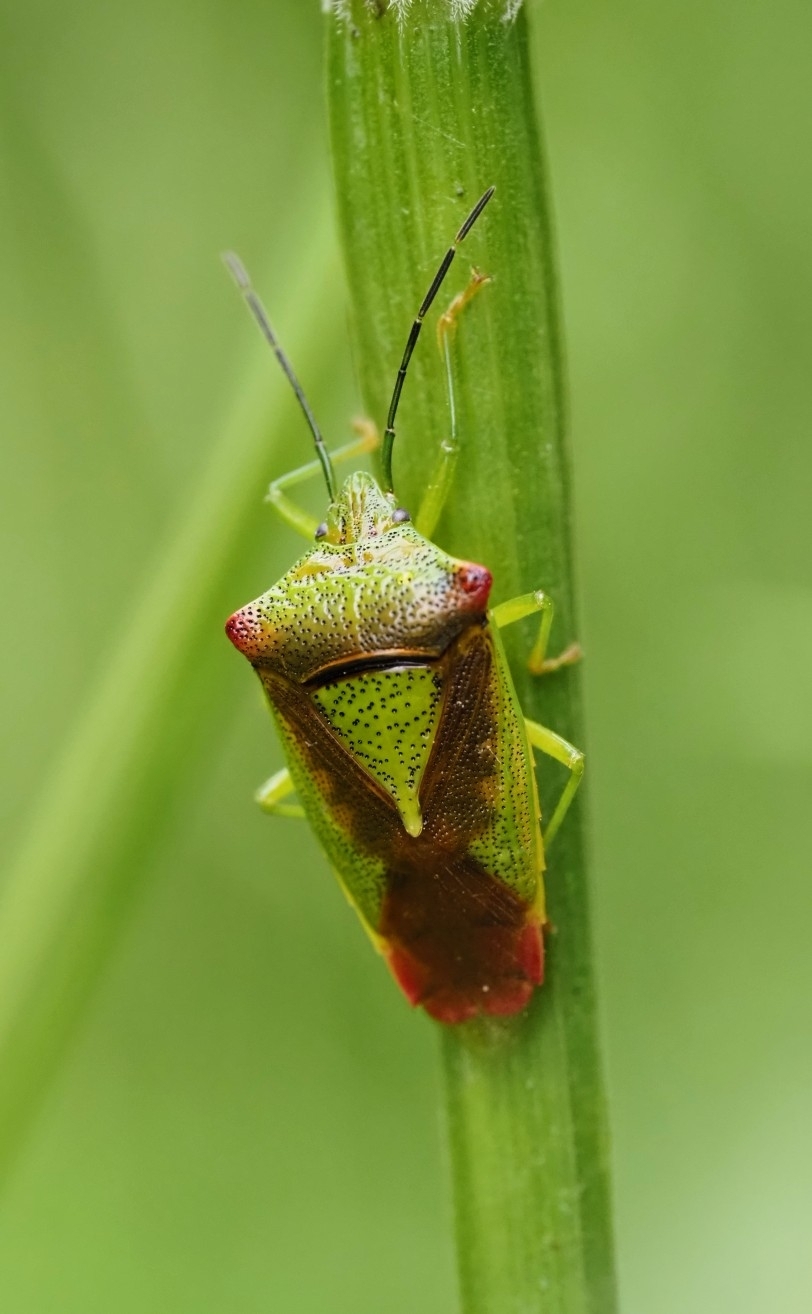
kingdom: Animalia
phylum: Arthropoda
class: Insecta
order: Hemiptera
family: Acanthosomatidae
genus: Acanthosoma
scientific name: Acanthosoma haemorrhoidale
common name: Hawthorn shieldbug
